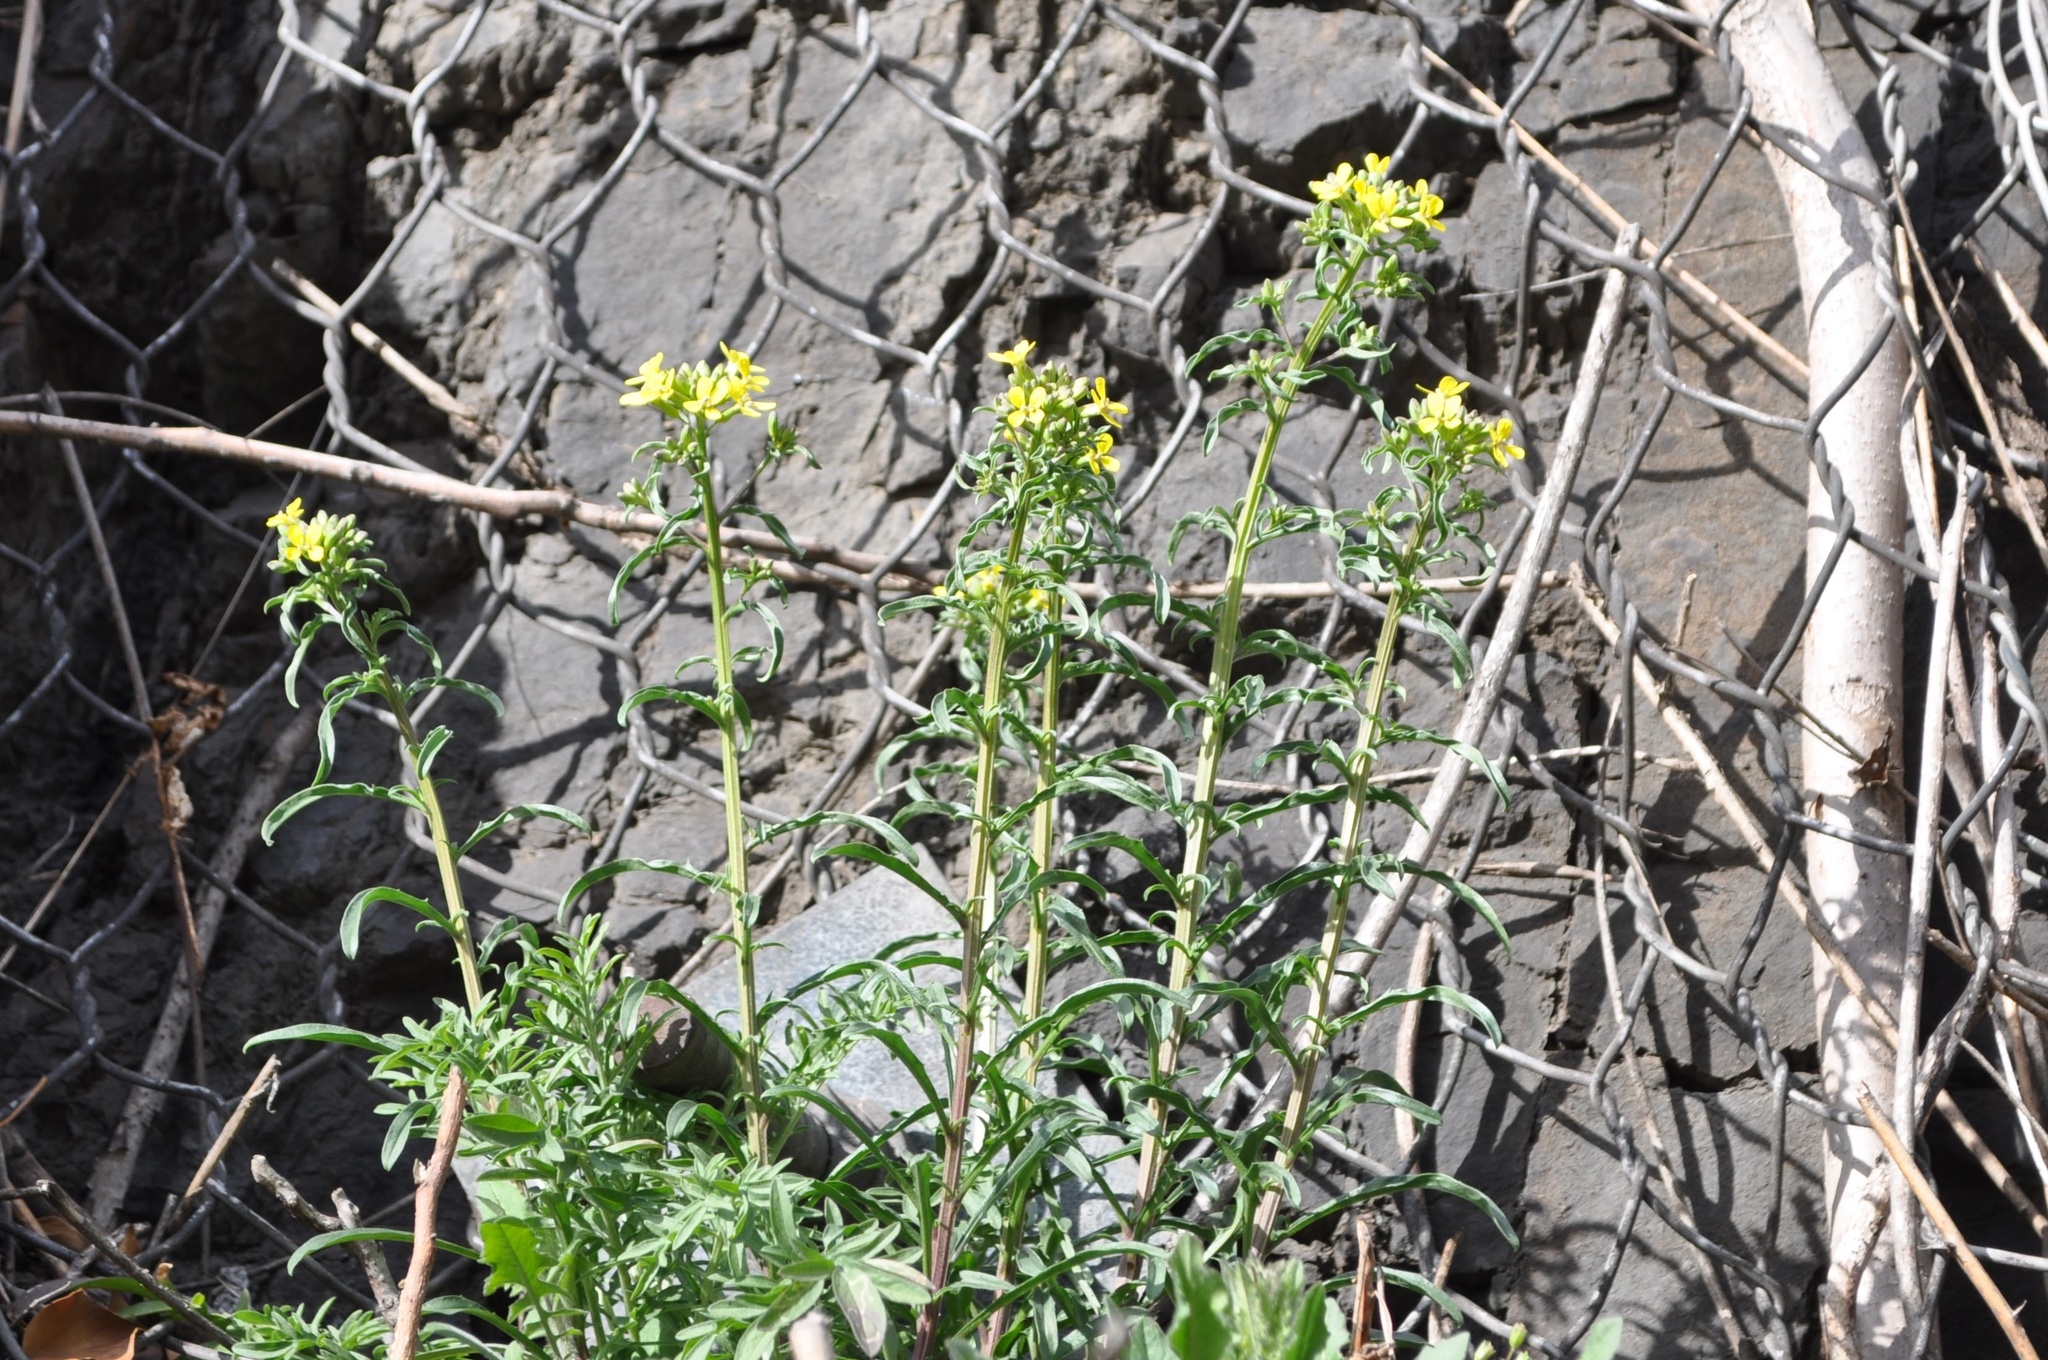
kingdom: Plantae
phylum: Tracheophyta
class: Magnoliopsida
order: Brassicales
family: Brassicaceae
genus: Erysimum
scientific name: Erysimum crepidifolium
